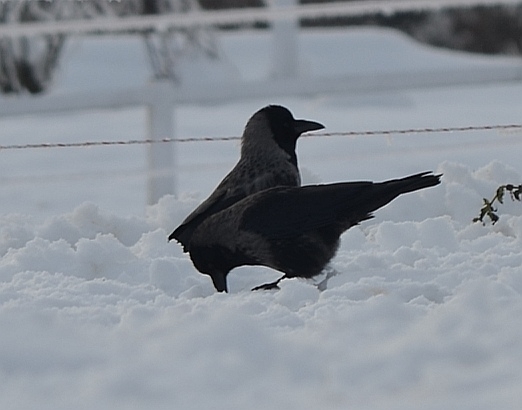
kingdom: Animalia
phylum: Chordata
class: Aves
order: Passeriformes
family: Corvidae
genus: Corvus
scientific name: Corvus cornix
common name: Hooded crow
